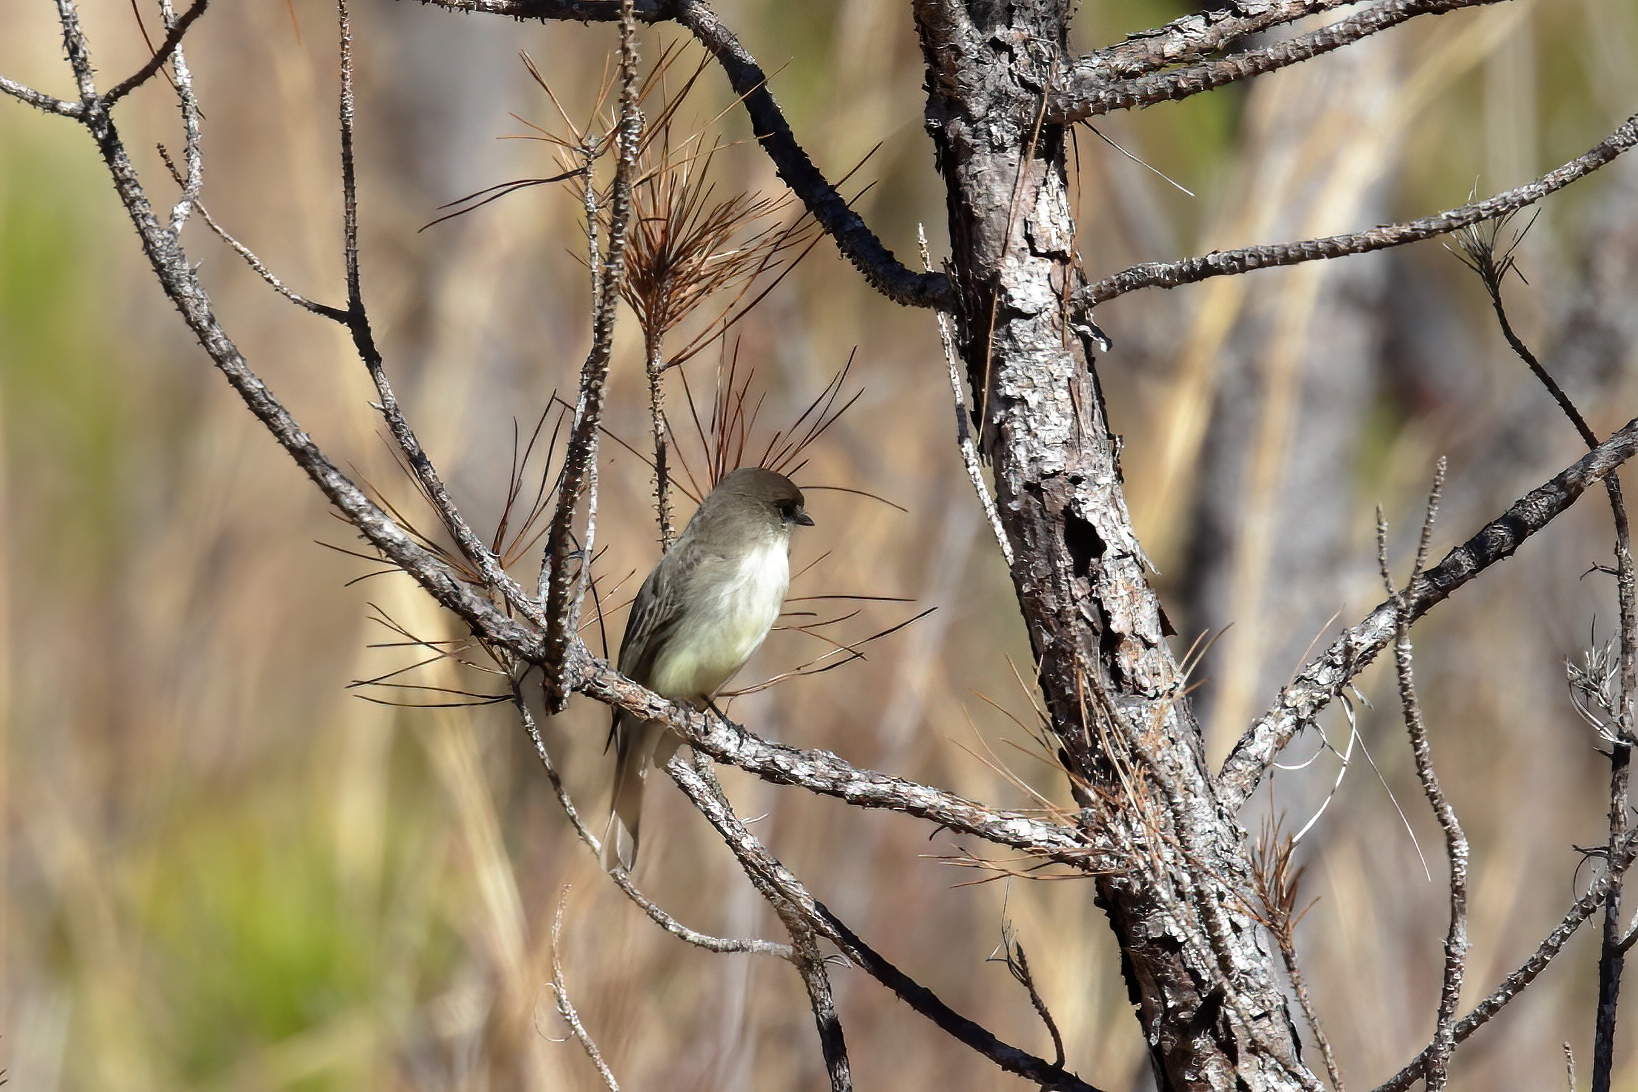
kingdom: Animalia
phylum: Chordata
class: Aves
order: Passeriformes
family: Tyrannidae
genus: Sayornis
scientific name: Sayornis phoebe
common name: Eastern phoebe
